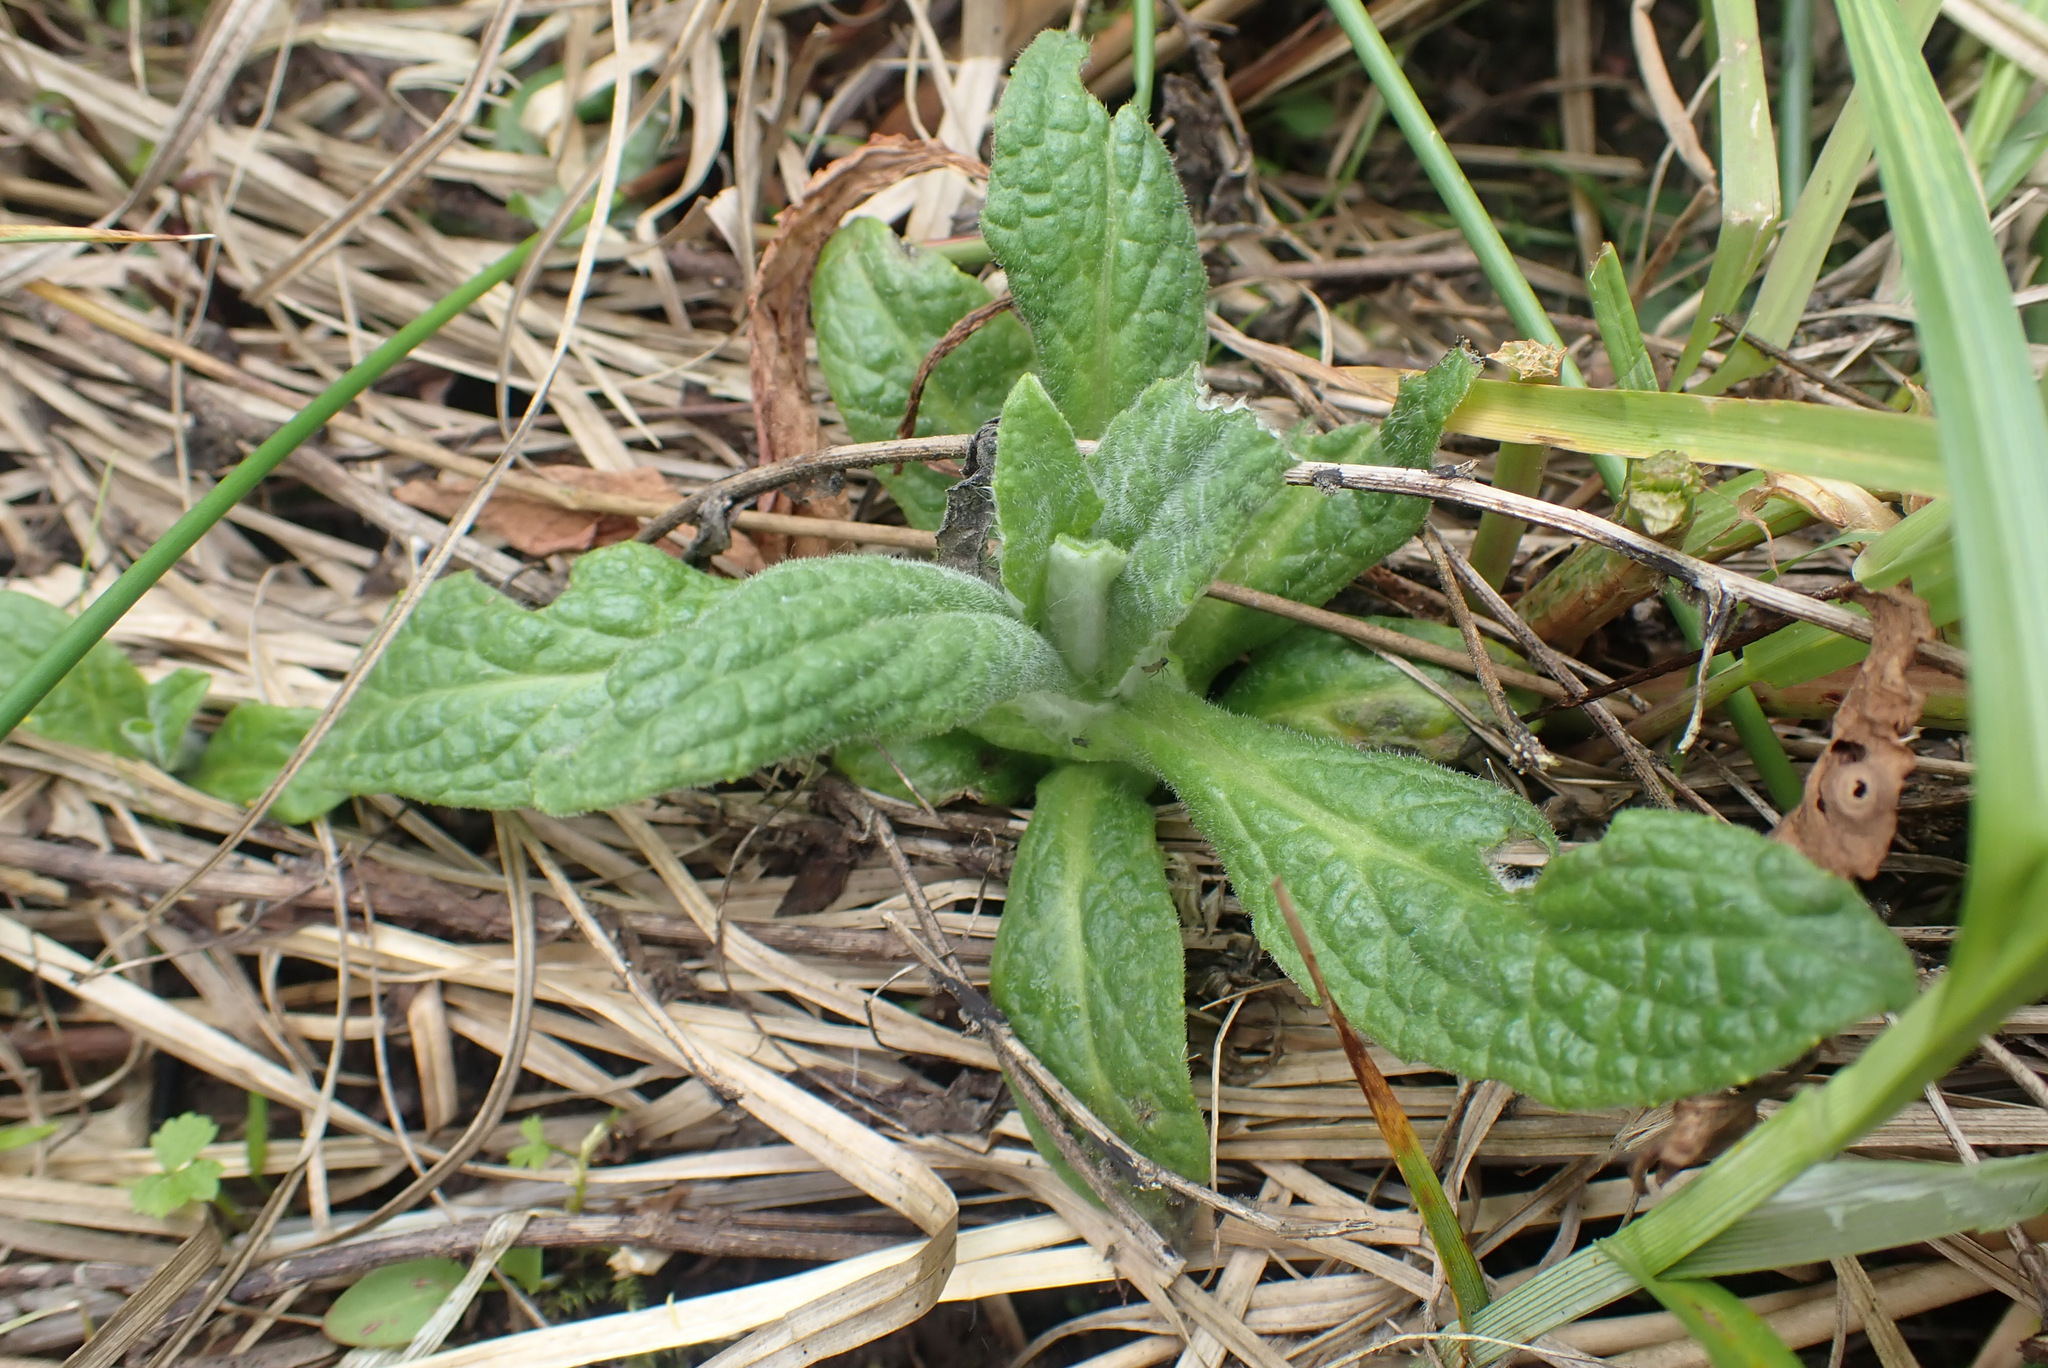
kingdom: Plantae
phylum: Tracheophyta
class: Magnoliopsida
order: Asterales
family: Asteraceae
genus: Pulicaria
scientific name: Pulicaria dysenterica
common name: Common fleabane
